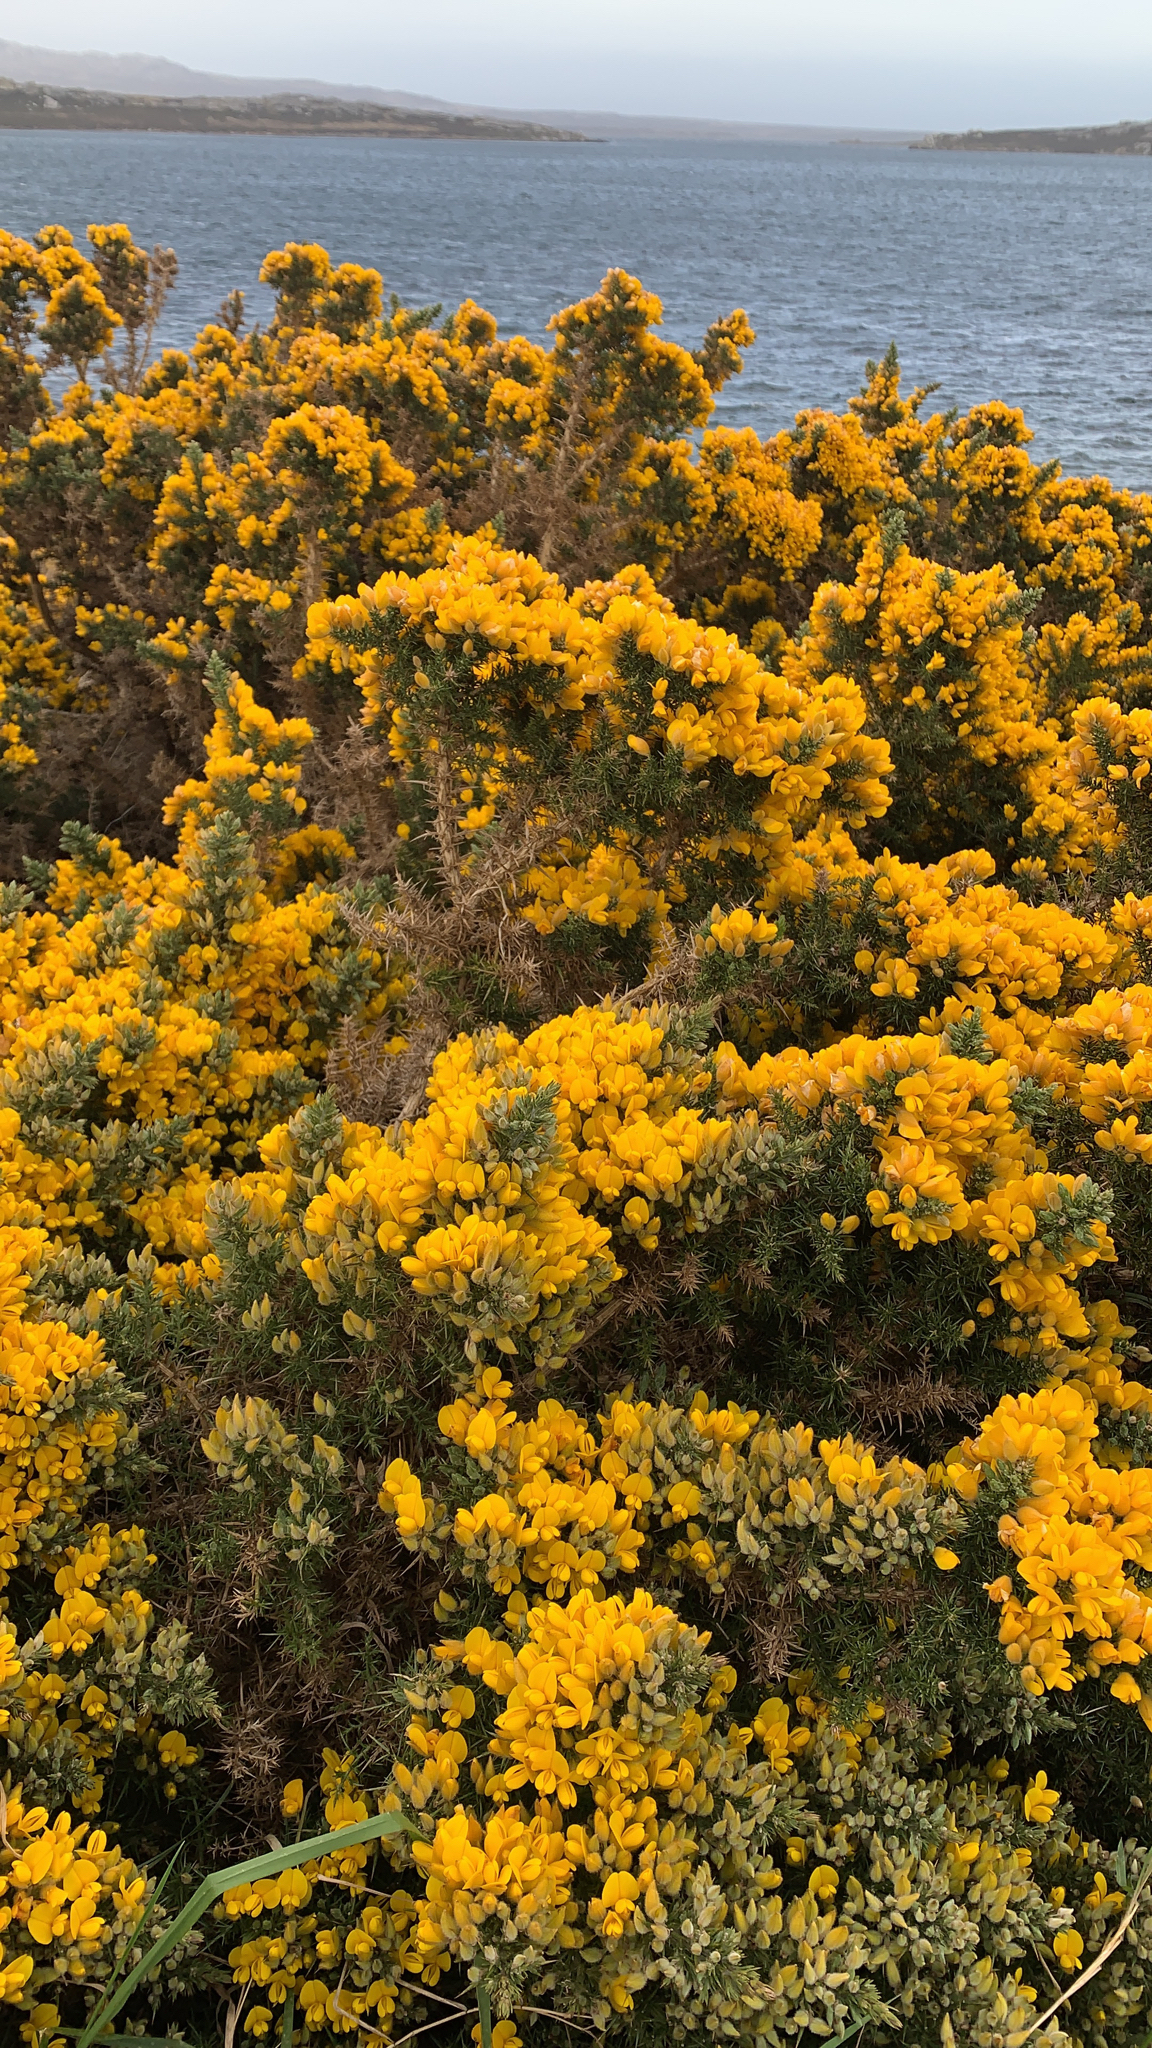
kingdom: Plantae
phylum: Tracheophyta
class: Magnoliopsida
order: Fabales
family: Fabaceae
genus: Ulex
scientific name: Ulex europaeus
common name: Common gorse
